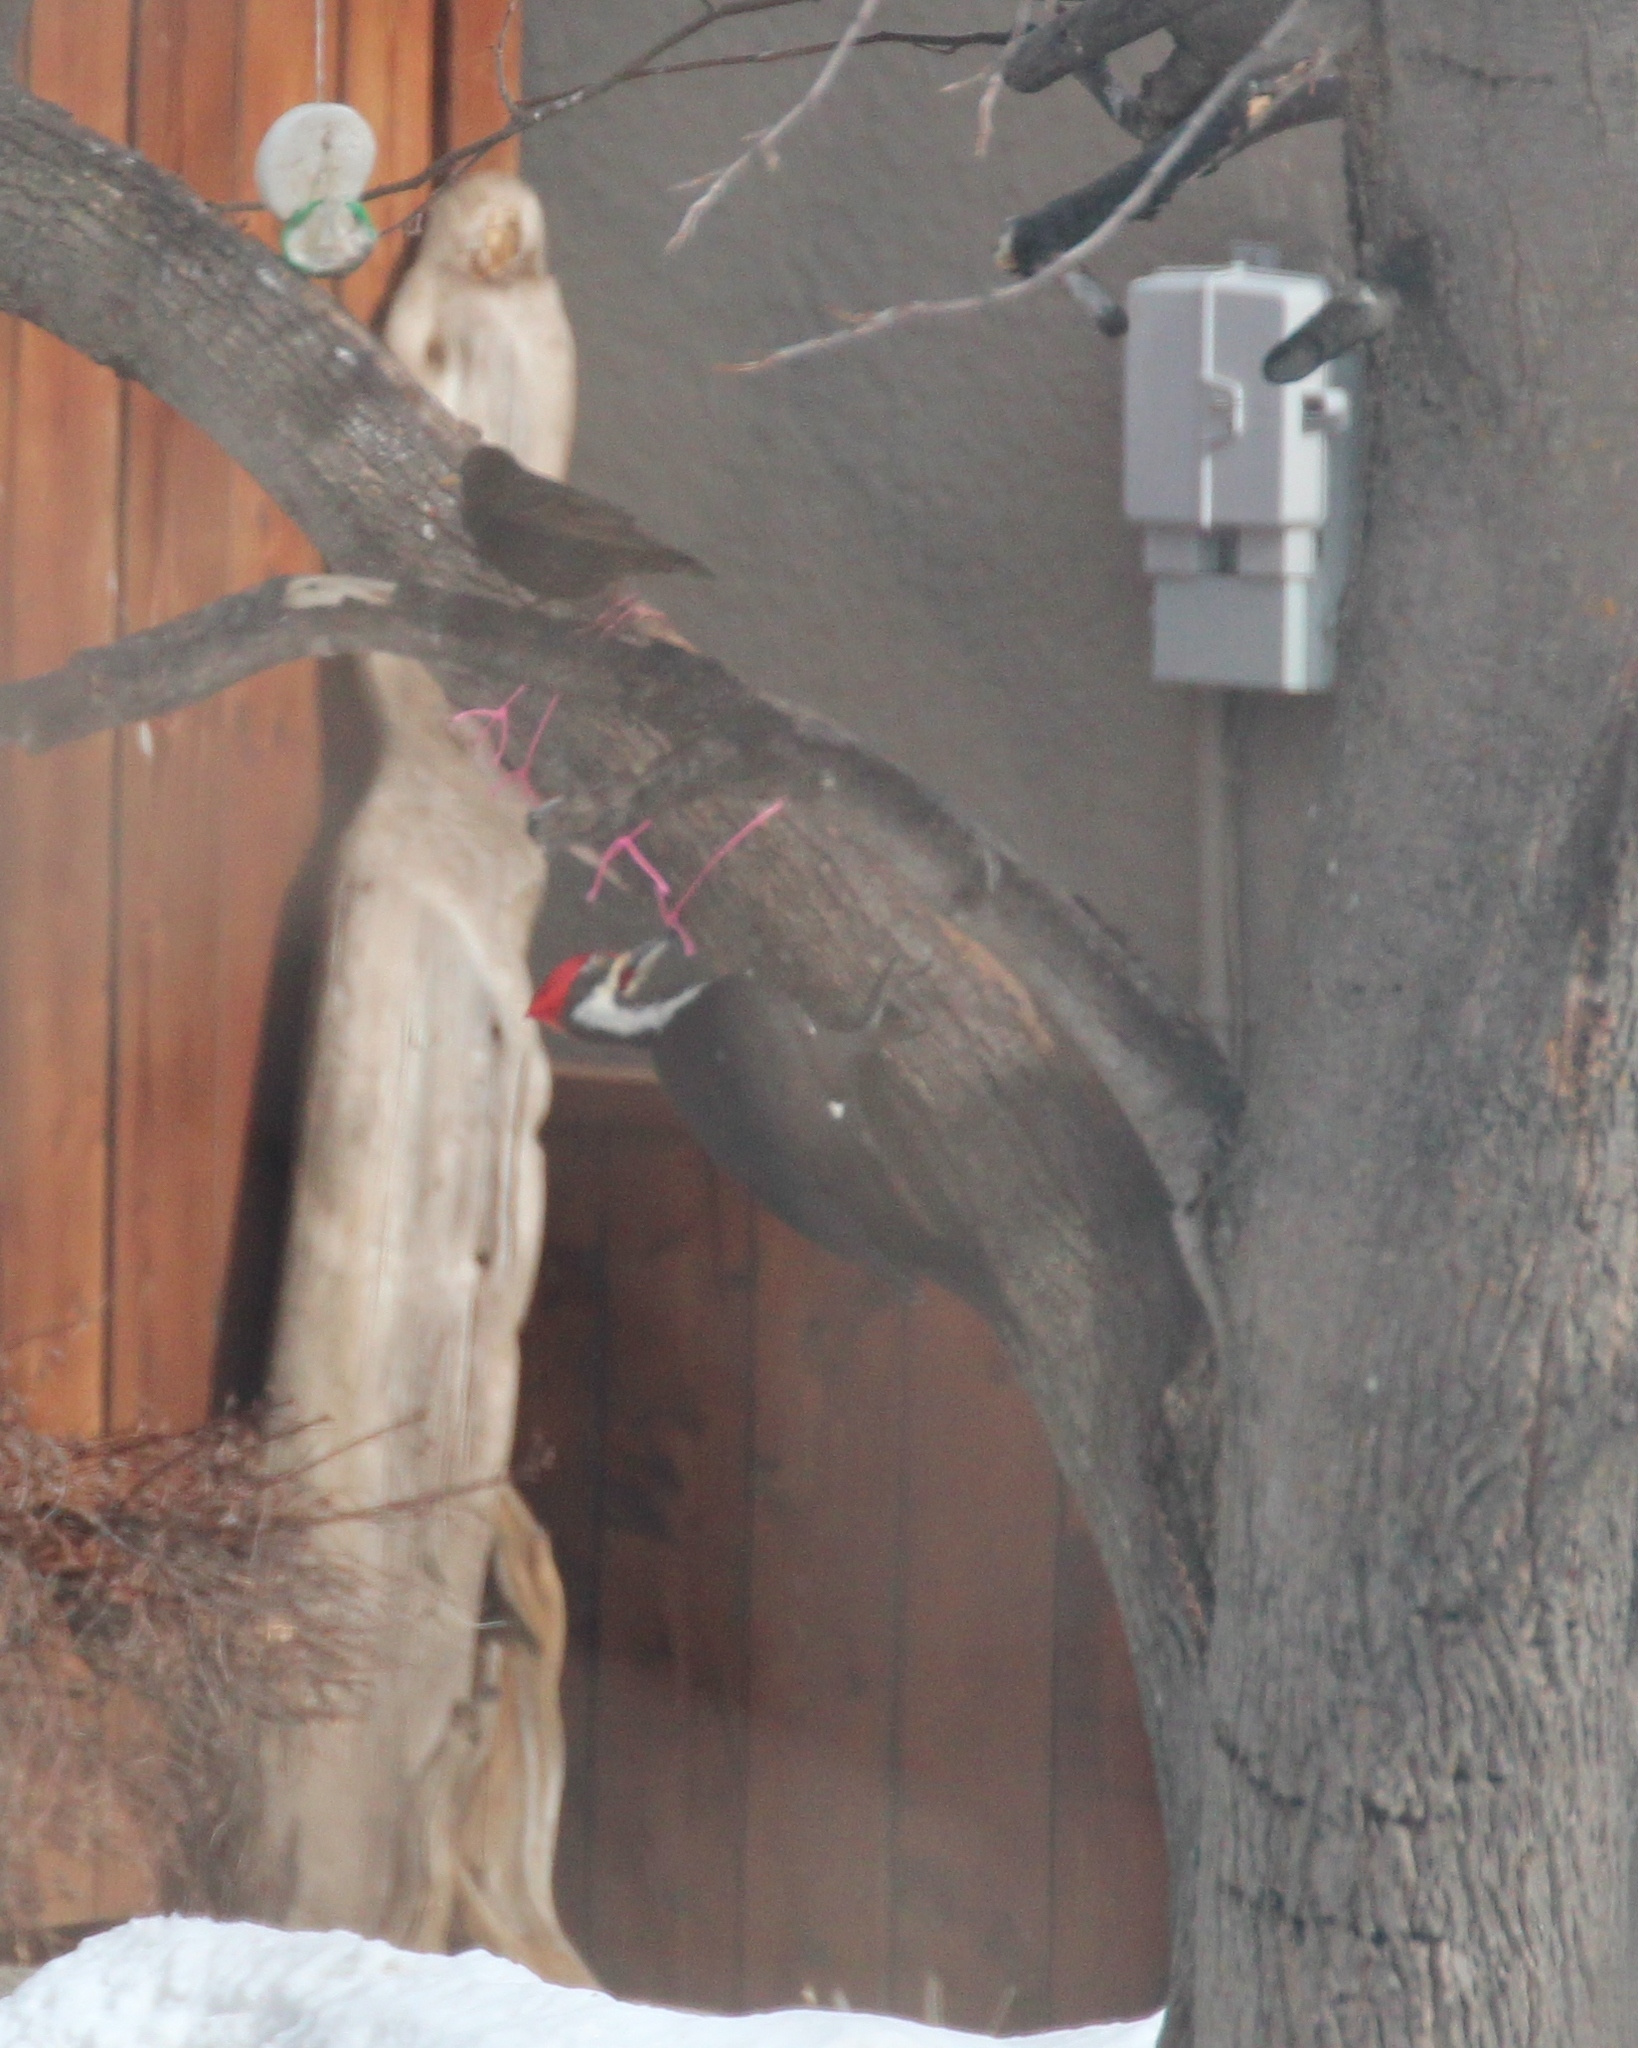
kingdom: Animalia
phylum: Chordata
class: Aves
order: Piciformes
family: Picidae
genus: Dryocopus
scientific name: Dryocopus pileatus
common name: Pileated woodpecker
